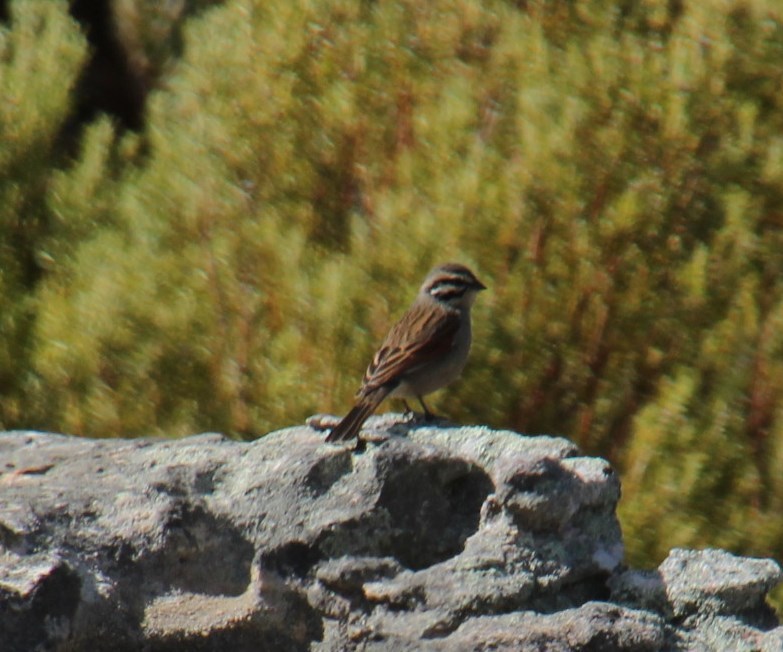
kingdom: Animalia
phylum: Chordata
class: Aves
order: Passeriformes
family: Emberizidae
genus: Emberiza
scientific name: Emberiza capensis
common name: Cape bunting
